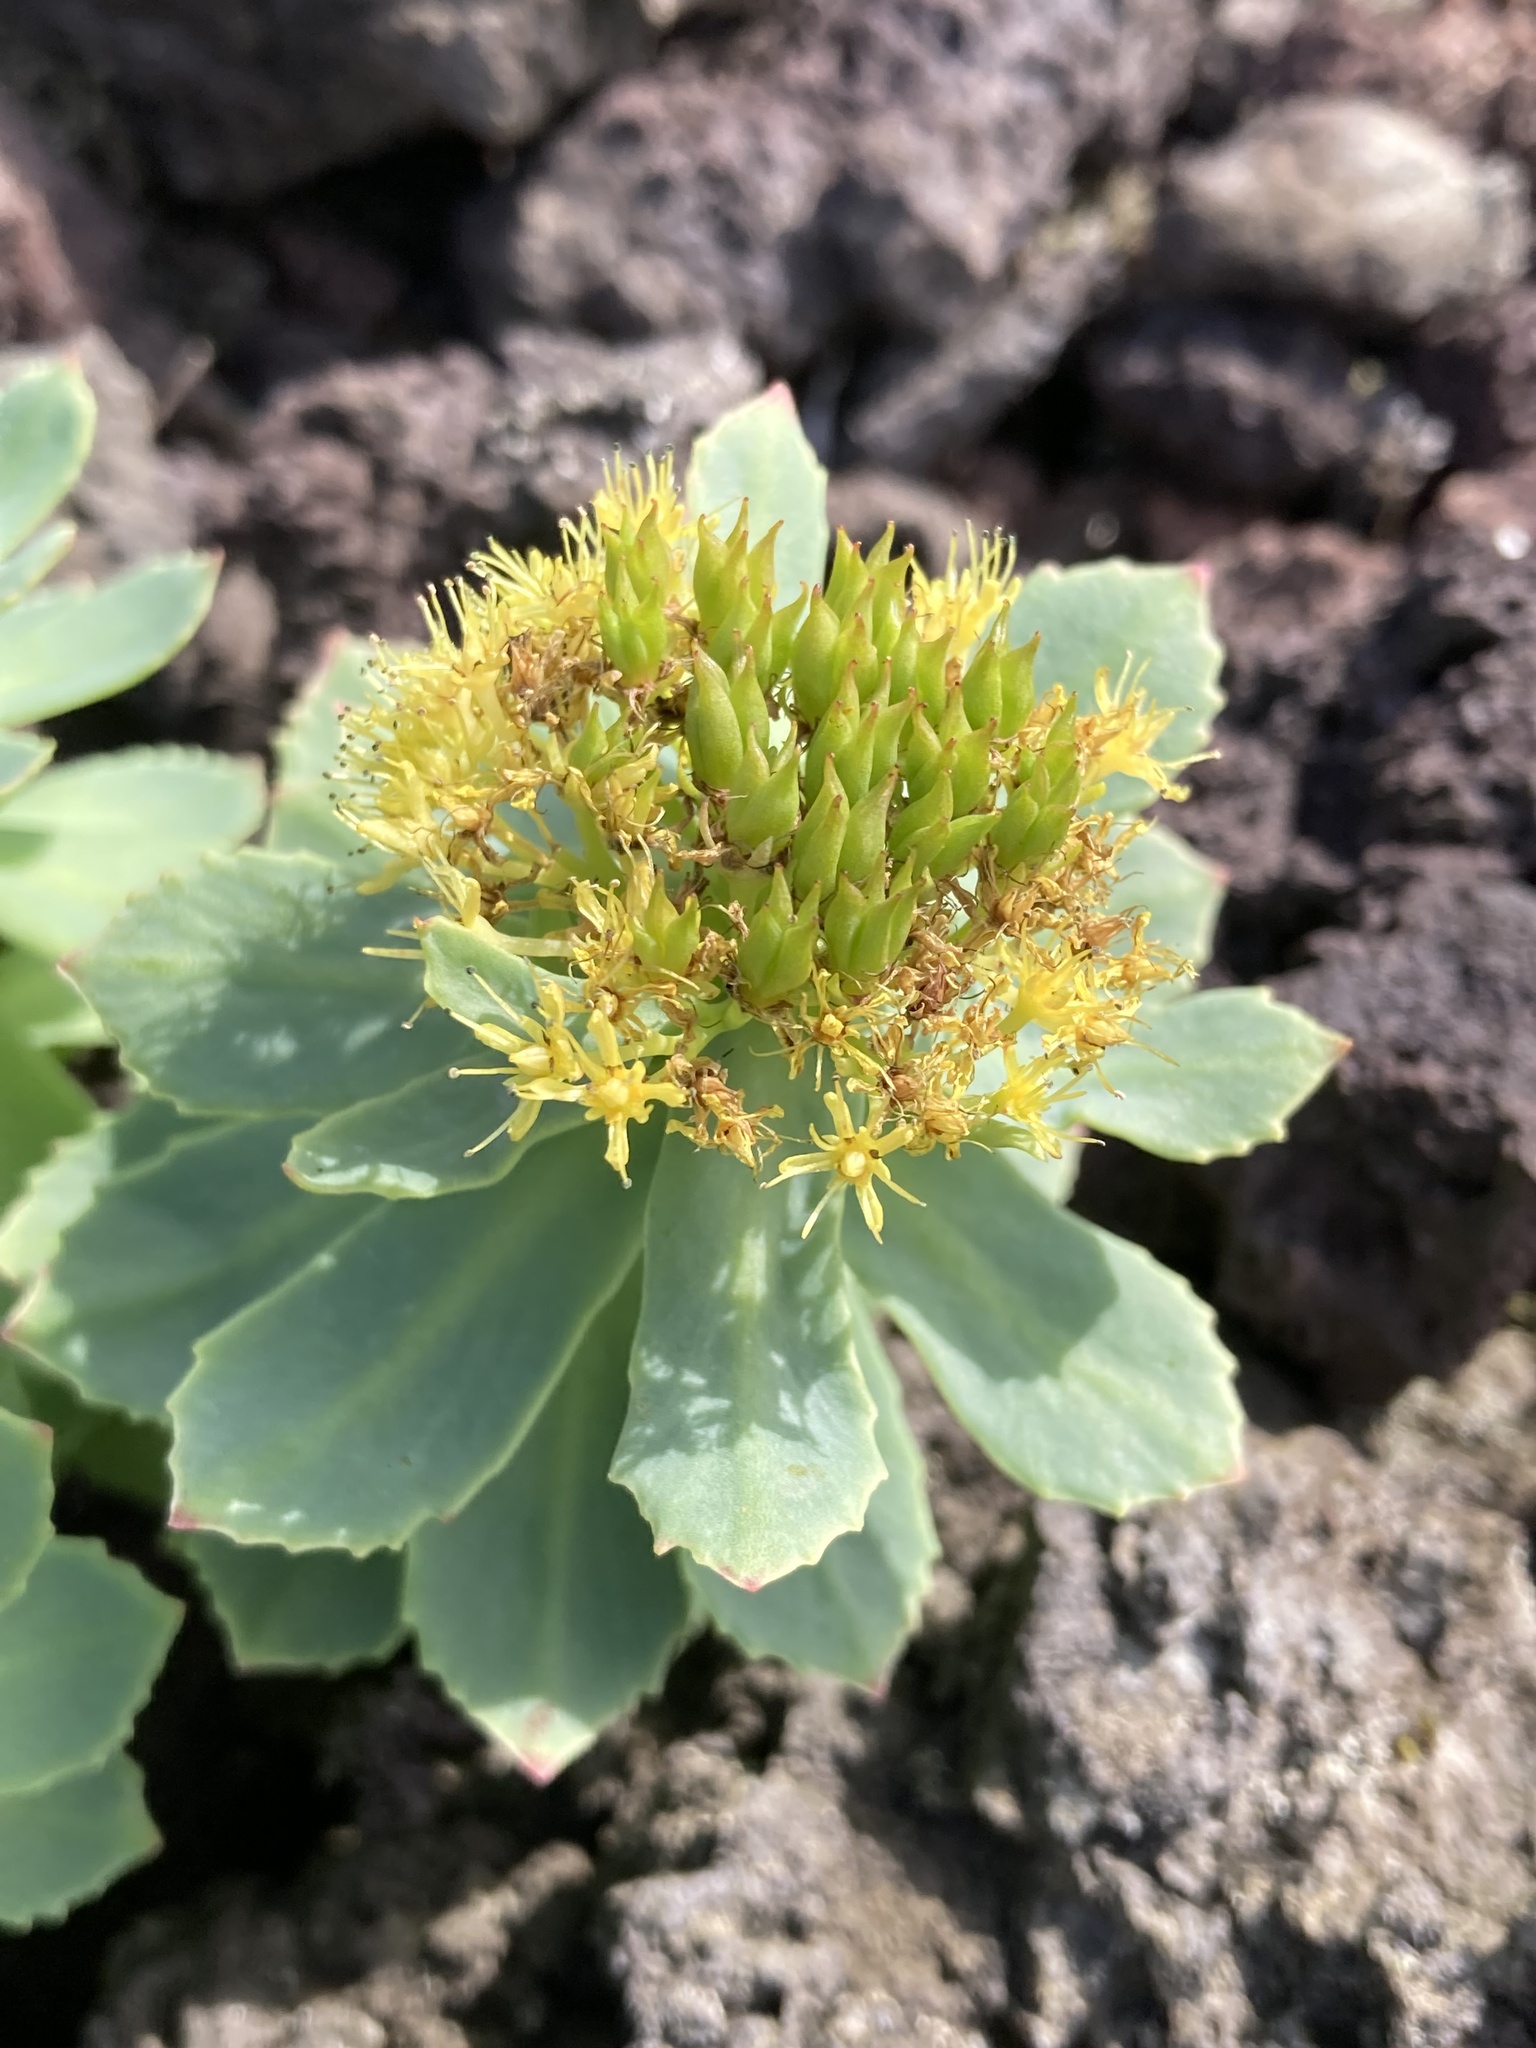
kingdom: Plantae
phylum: Tracheophyta
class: Magnoliopsida
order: Saxifragales
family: Crassulaceae
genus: Rhodiola
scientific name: Rhodiola rosea
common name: Roseroot
